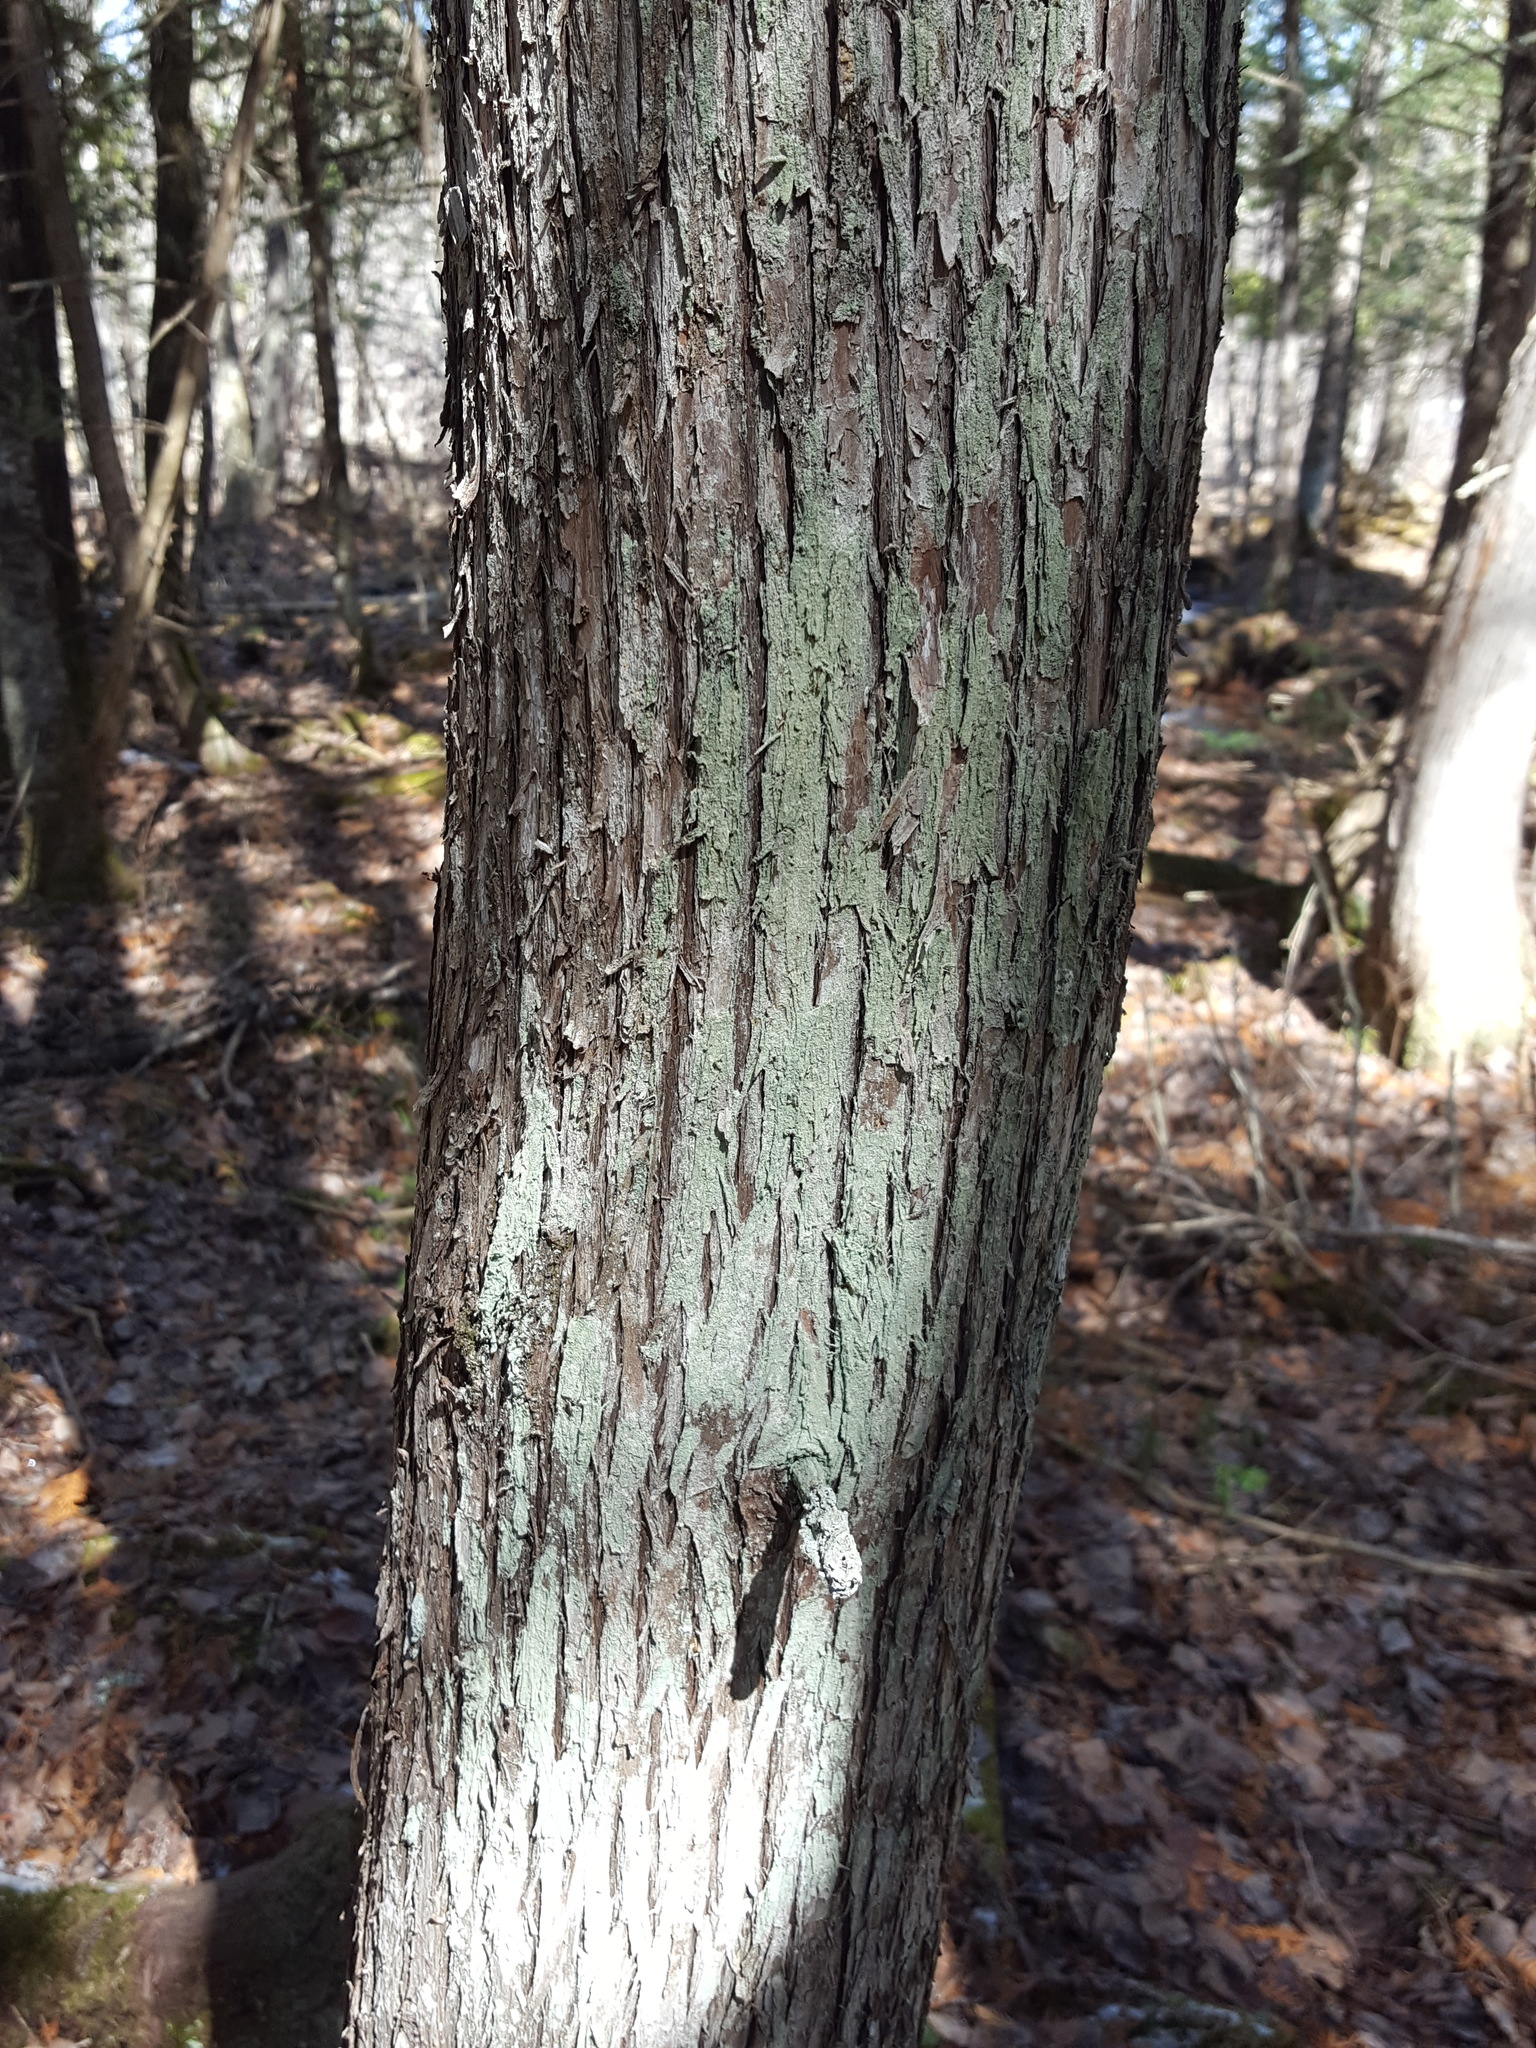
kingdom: Fungi
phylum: Ascomycota
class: Lecanoromycetes
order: Lecanorales
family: Stereocaulaceae
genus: Lepraria
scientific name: Lepraria lobificans
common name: Fluffy dust lichen
